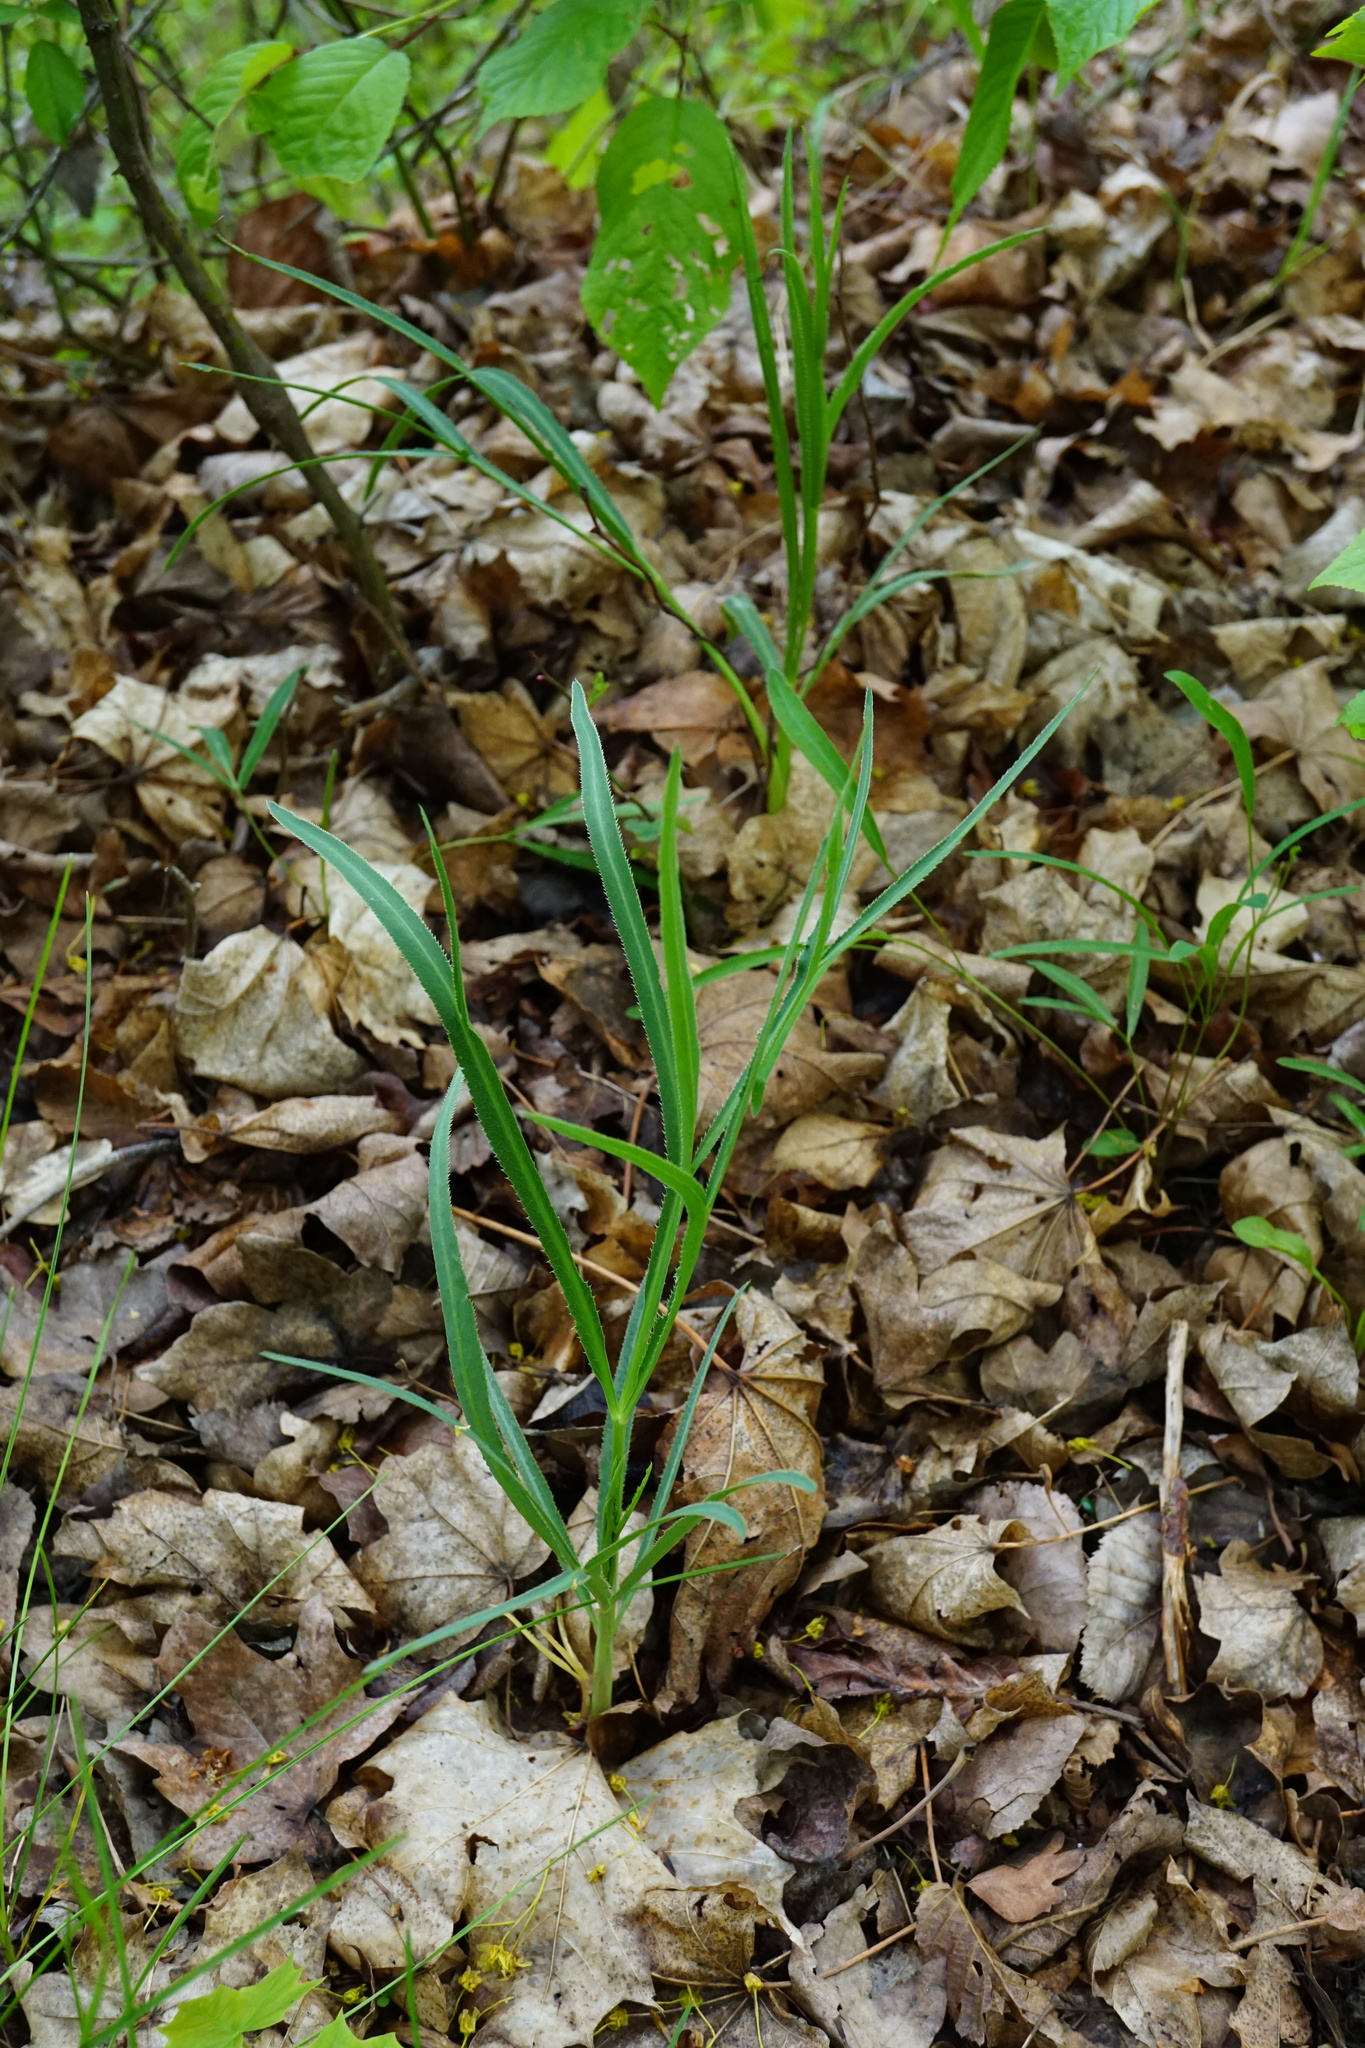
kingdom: Plantae
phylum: Tracheophyta
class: Magnoliopsida
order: Apiales
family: Apiaceae
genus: Falcaria
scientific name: Falcaria vulgaris
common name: Longleaf
